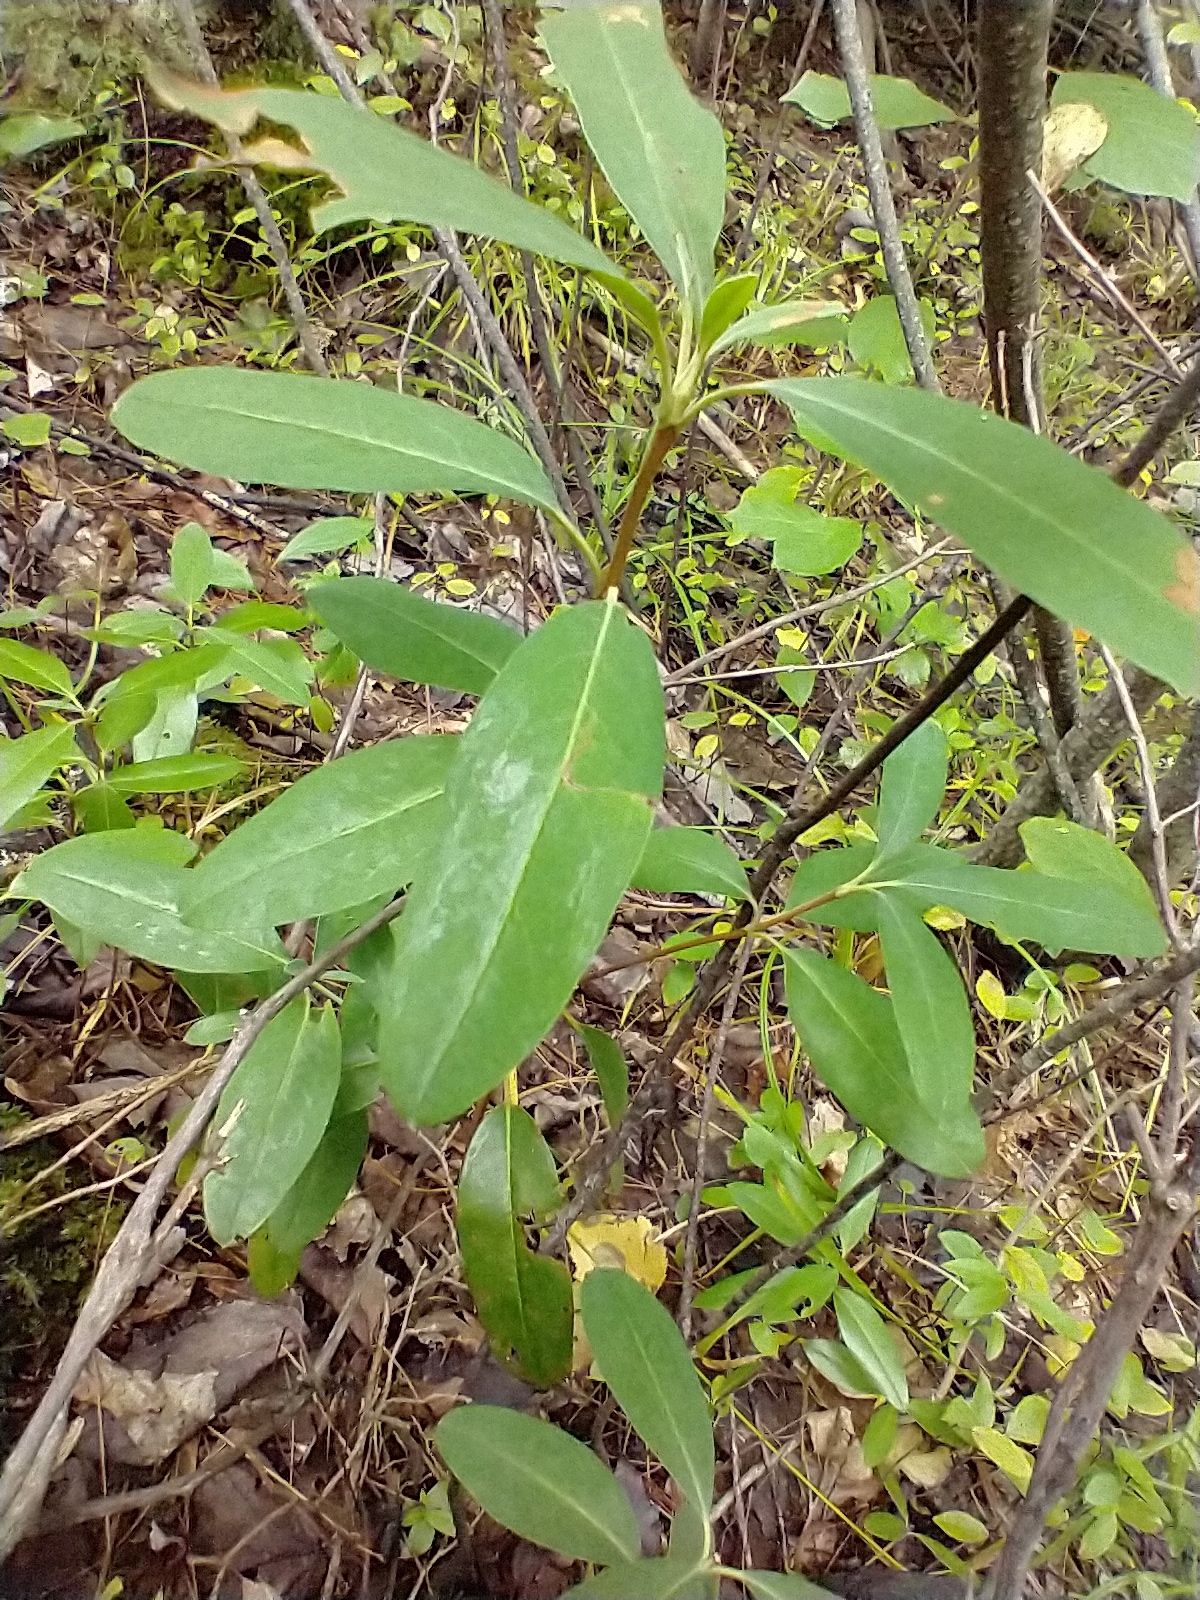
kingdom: Plantae
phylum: Tracheophyta
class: Magnoliopsida
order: Ericales
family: Ericaceae
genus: Kalmia
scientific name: Kalmia angustifolia
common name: Sheep-laurel
